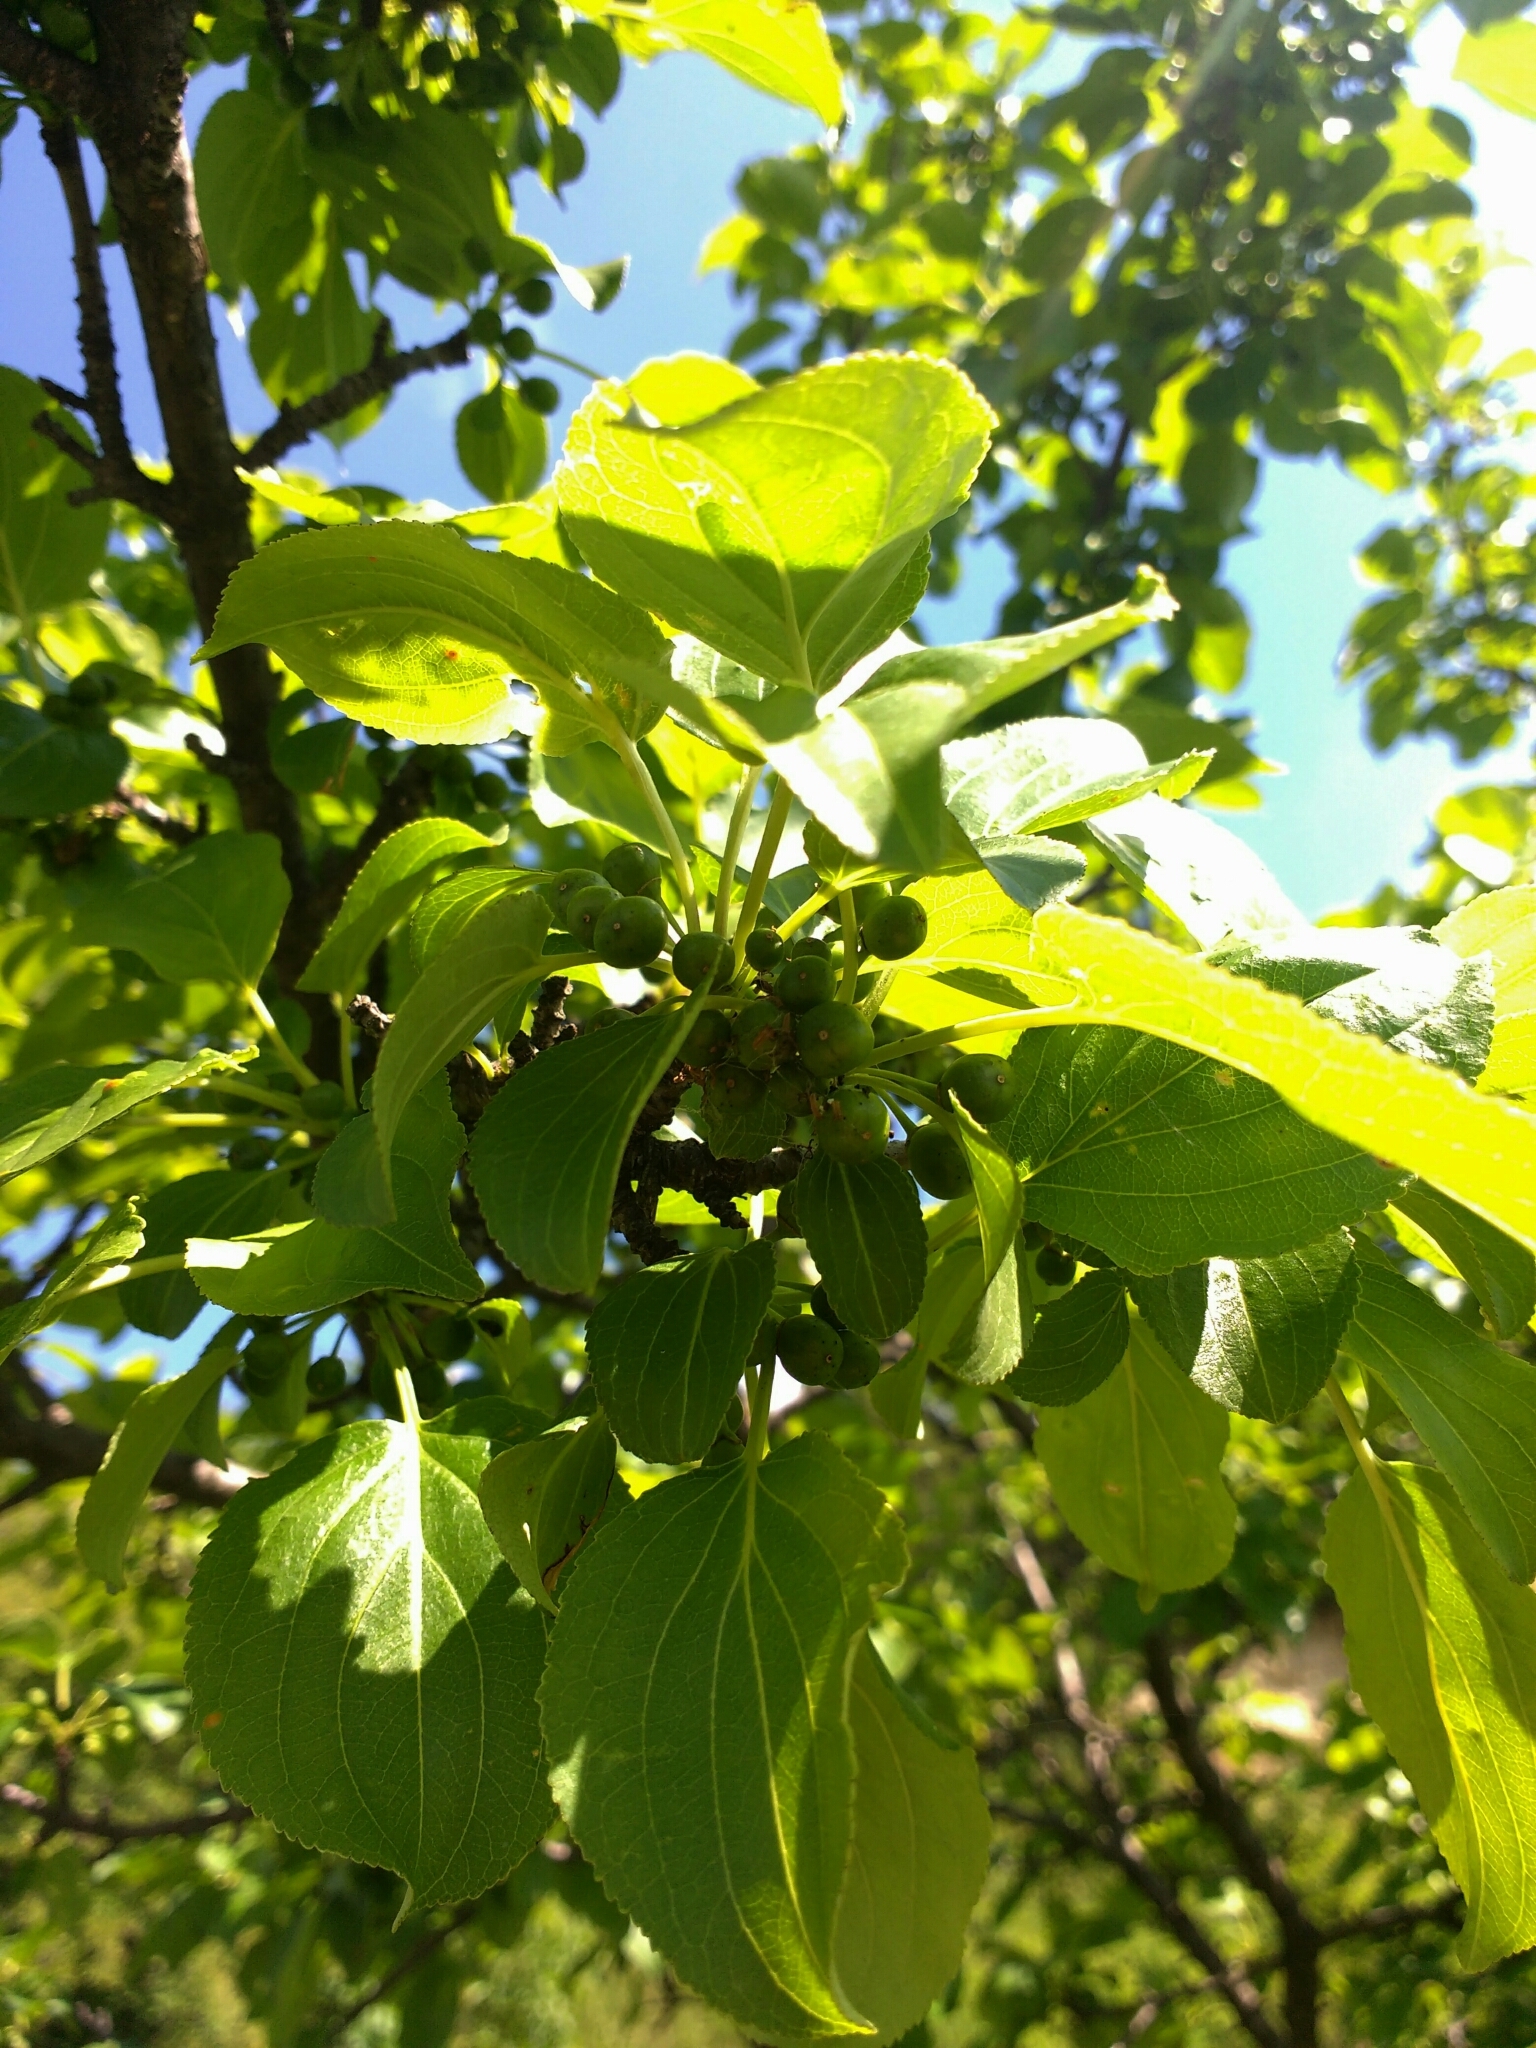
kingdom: Plantae
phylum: Tracheophyta
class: Magnoliopsida
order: Rosales
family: Rhamnaceae
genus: Rhamnus
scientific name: Rhamnus cathartica
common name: Common buckthorn
